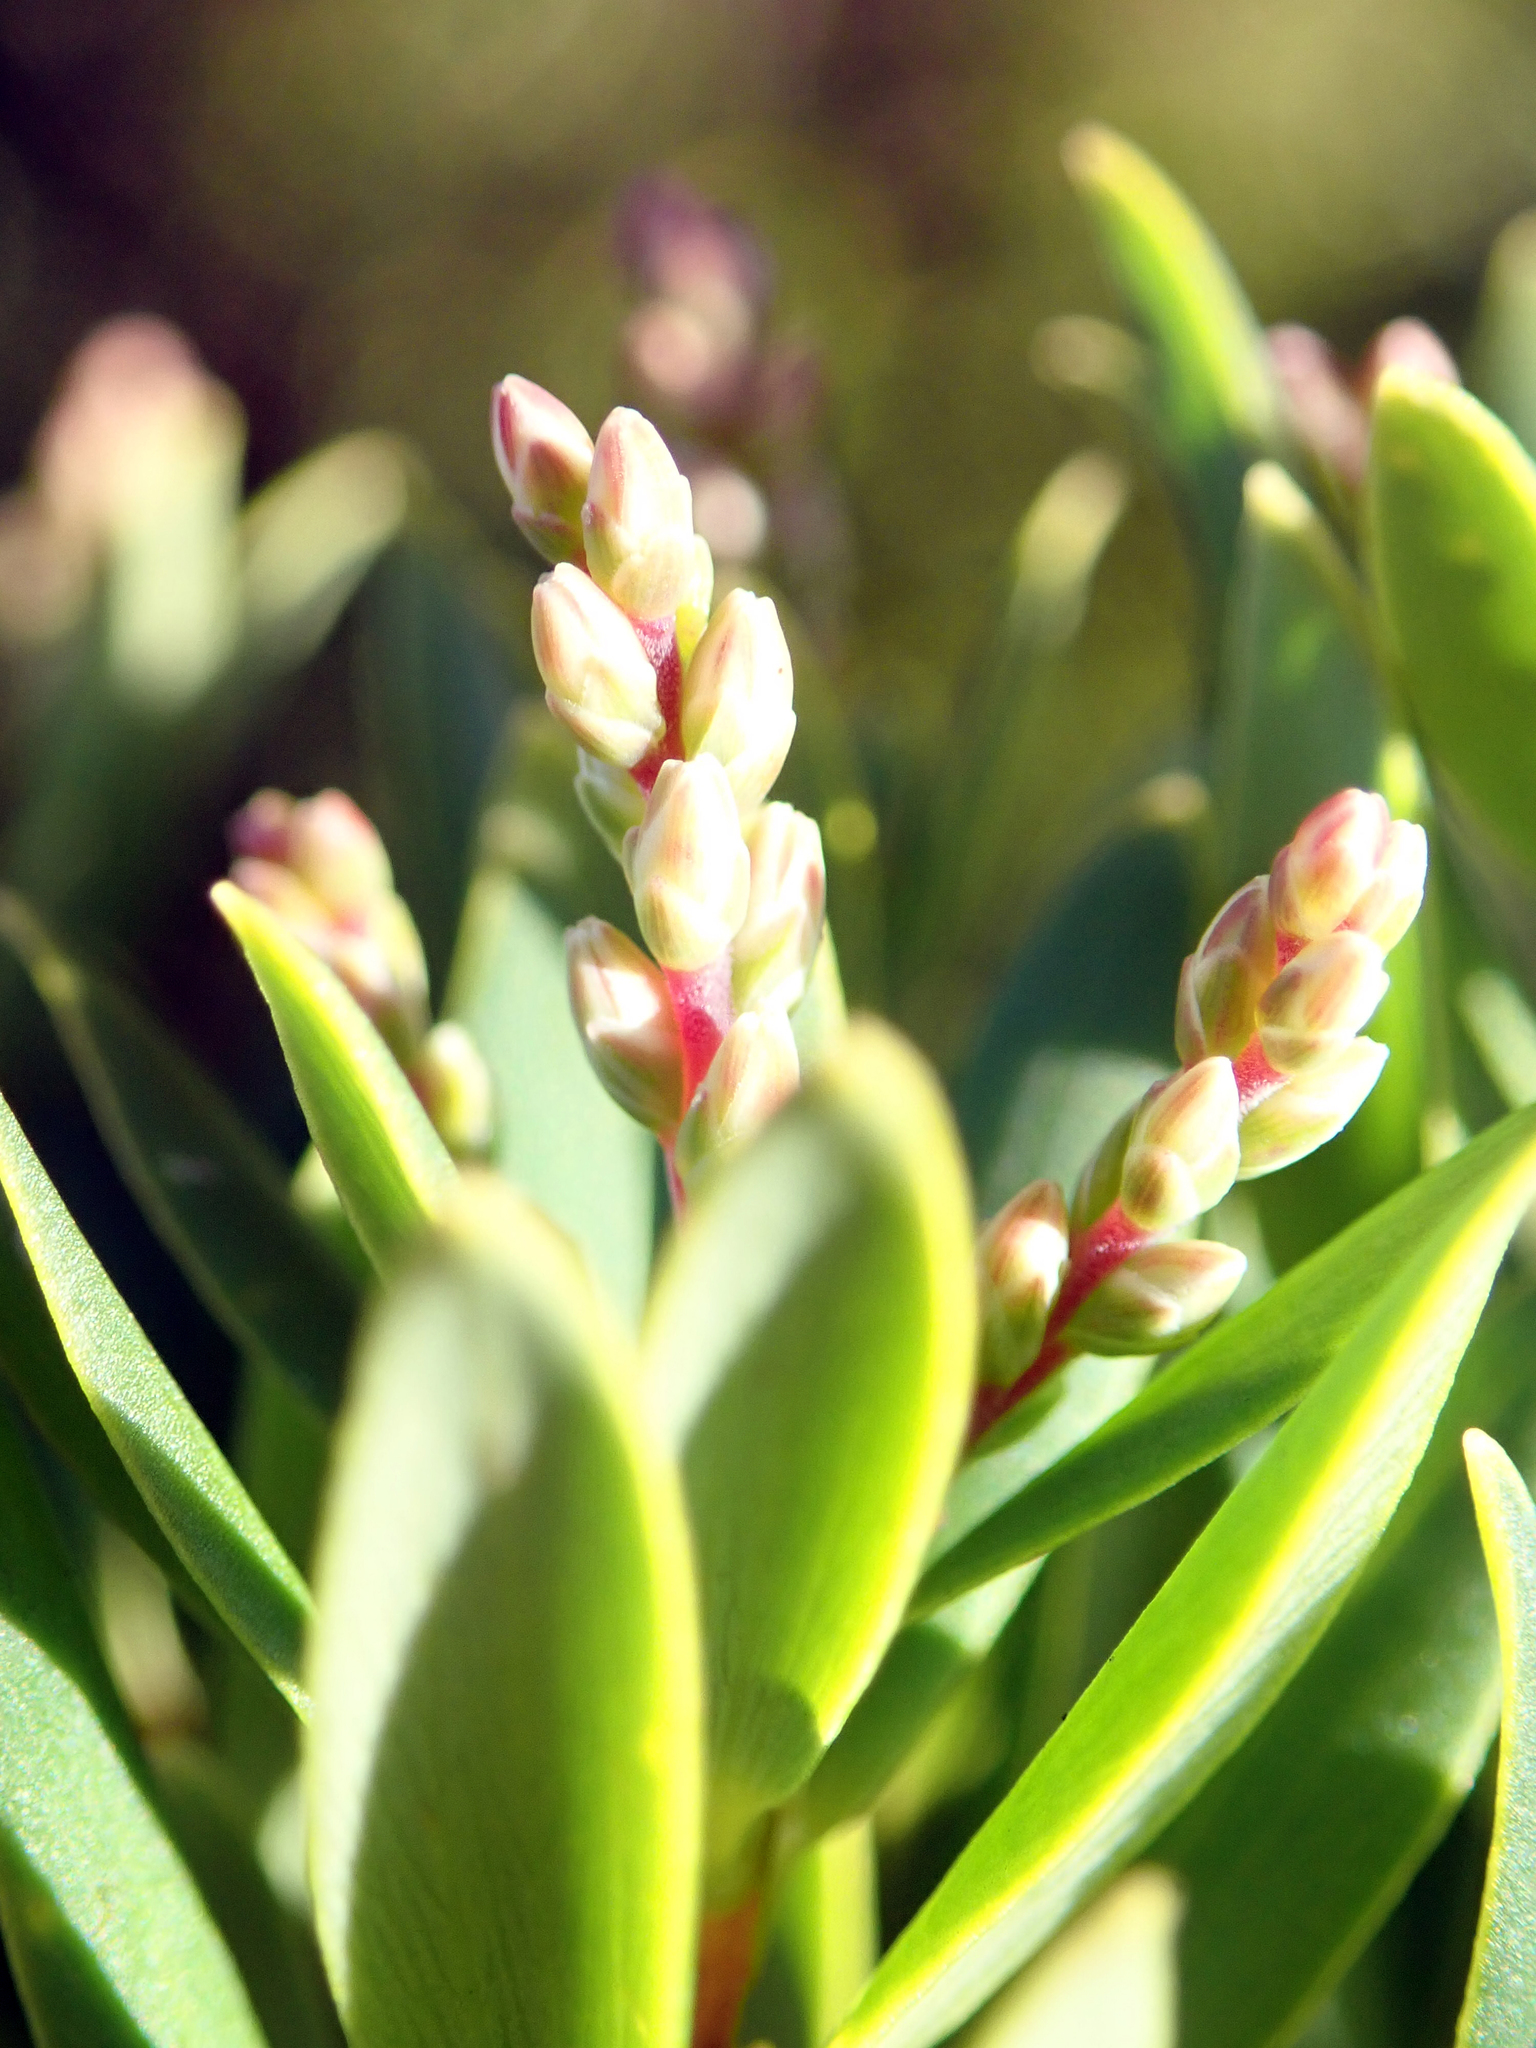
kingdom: Plantae
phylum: Tracheophyta
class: Magnoliopsida
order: Ericales
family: Ericaceae
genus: Leptecophylla
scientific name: Leptecophylla parvifolia
